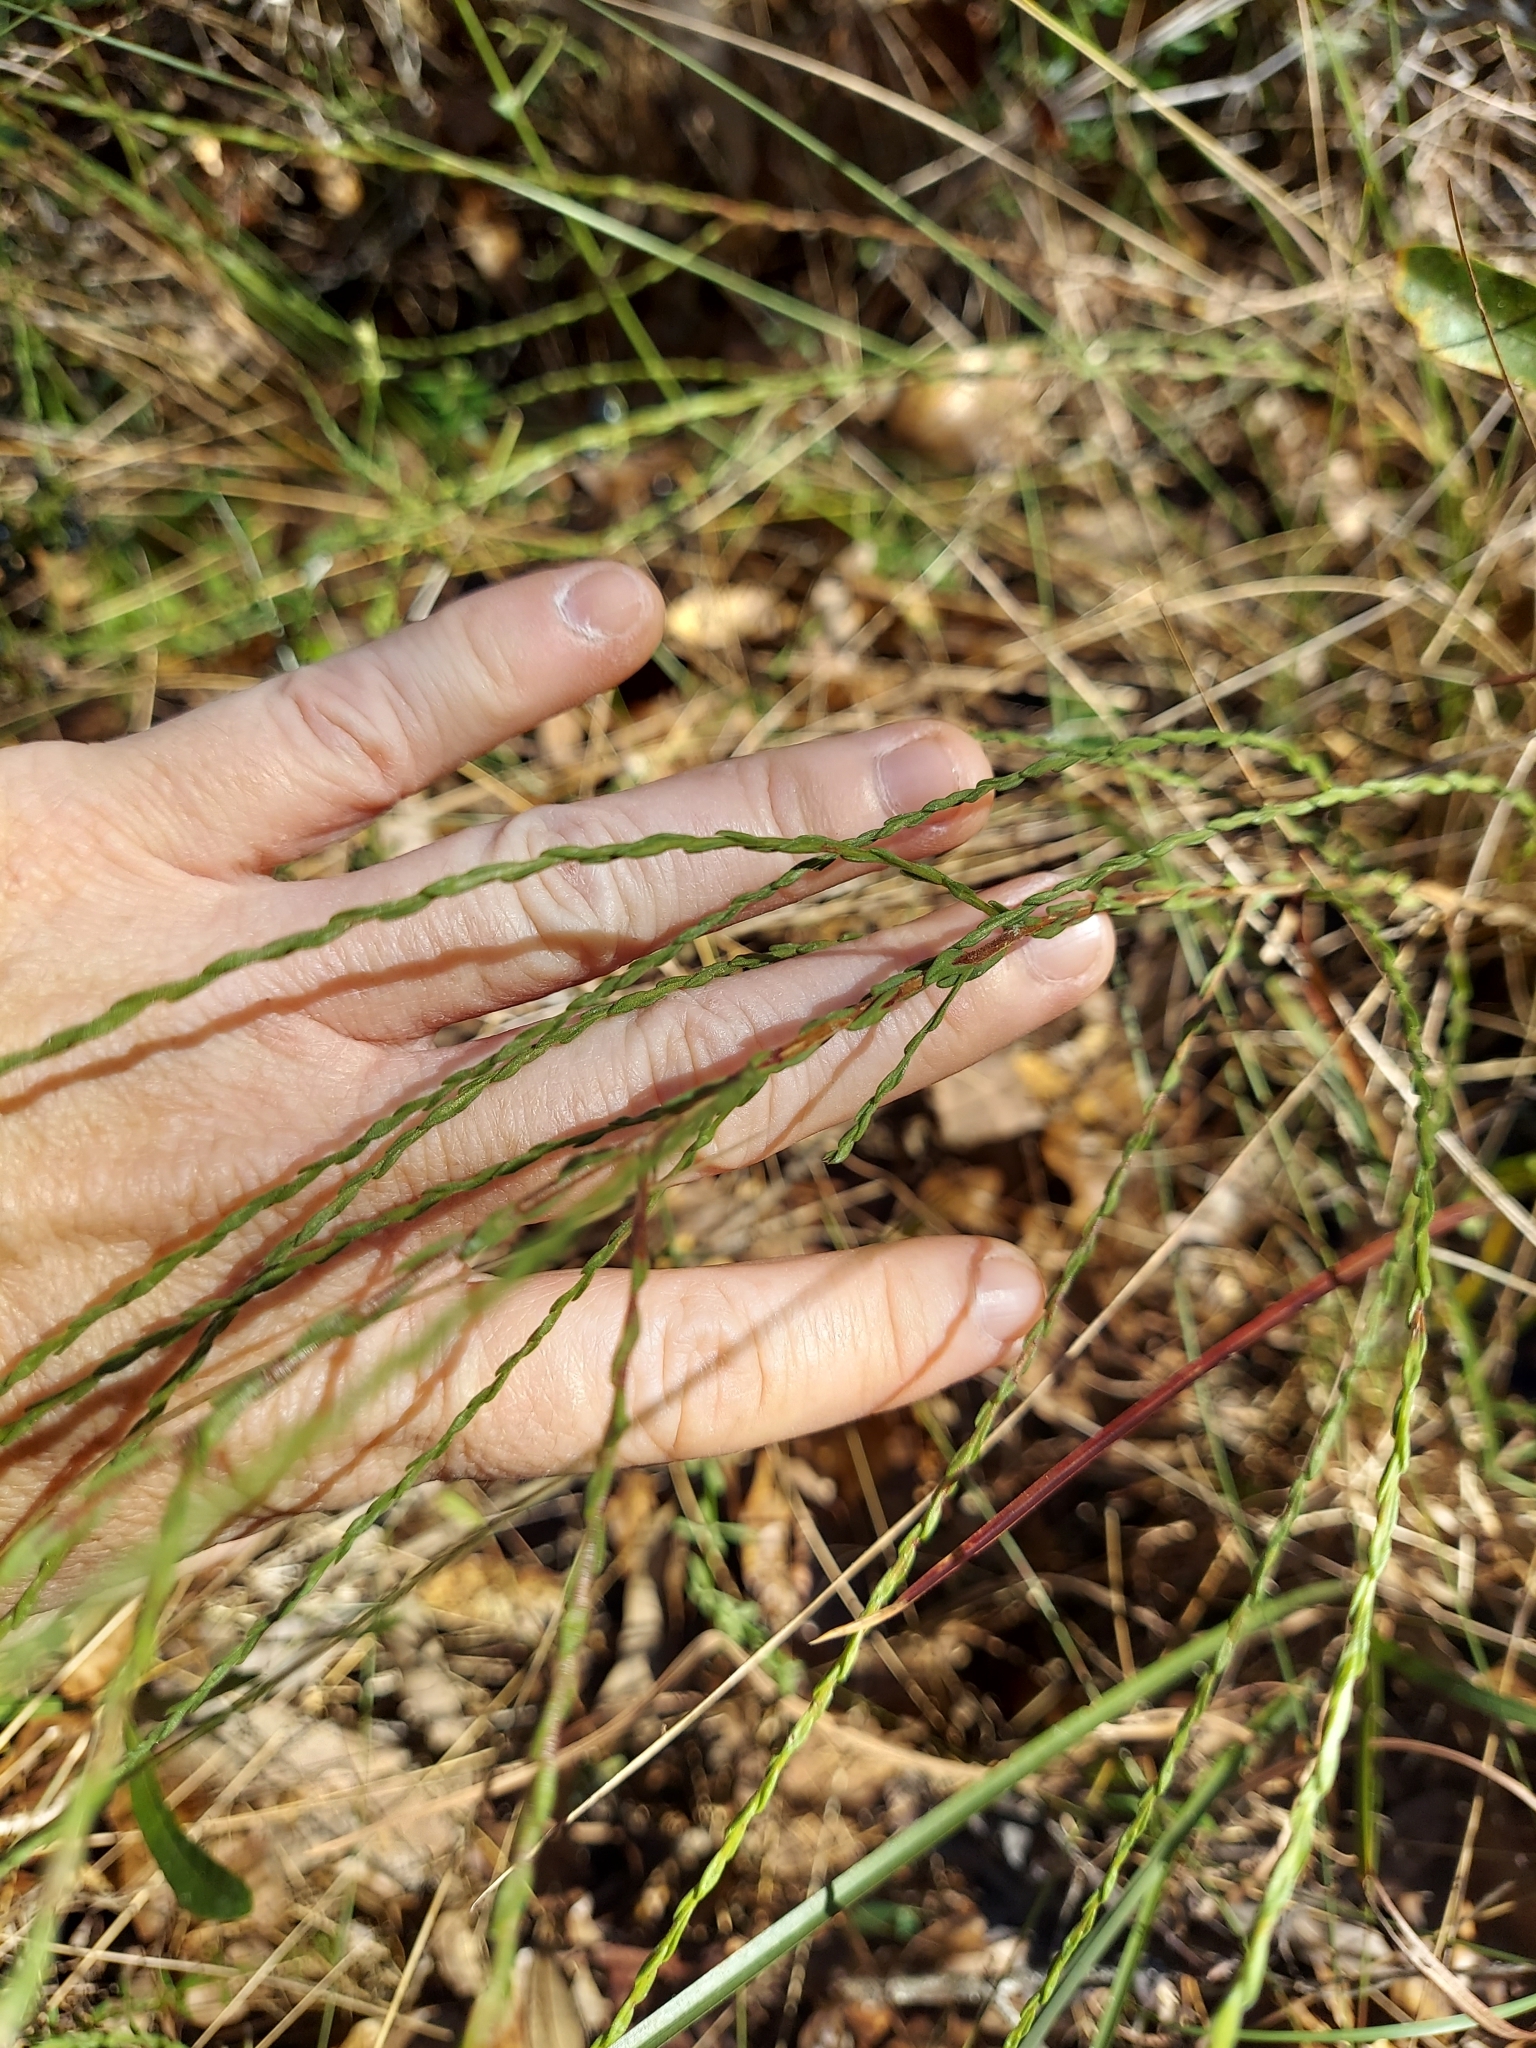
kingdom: Plantae
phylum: Tracheophyta
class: Magnoliopsida
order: Asterales
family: Asteraceae
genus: Symphyotrichum
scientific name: Symphyotrichum adnatum
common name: Scale-leaf aster
